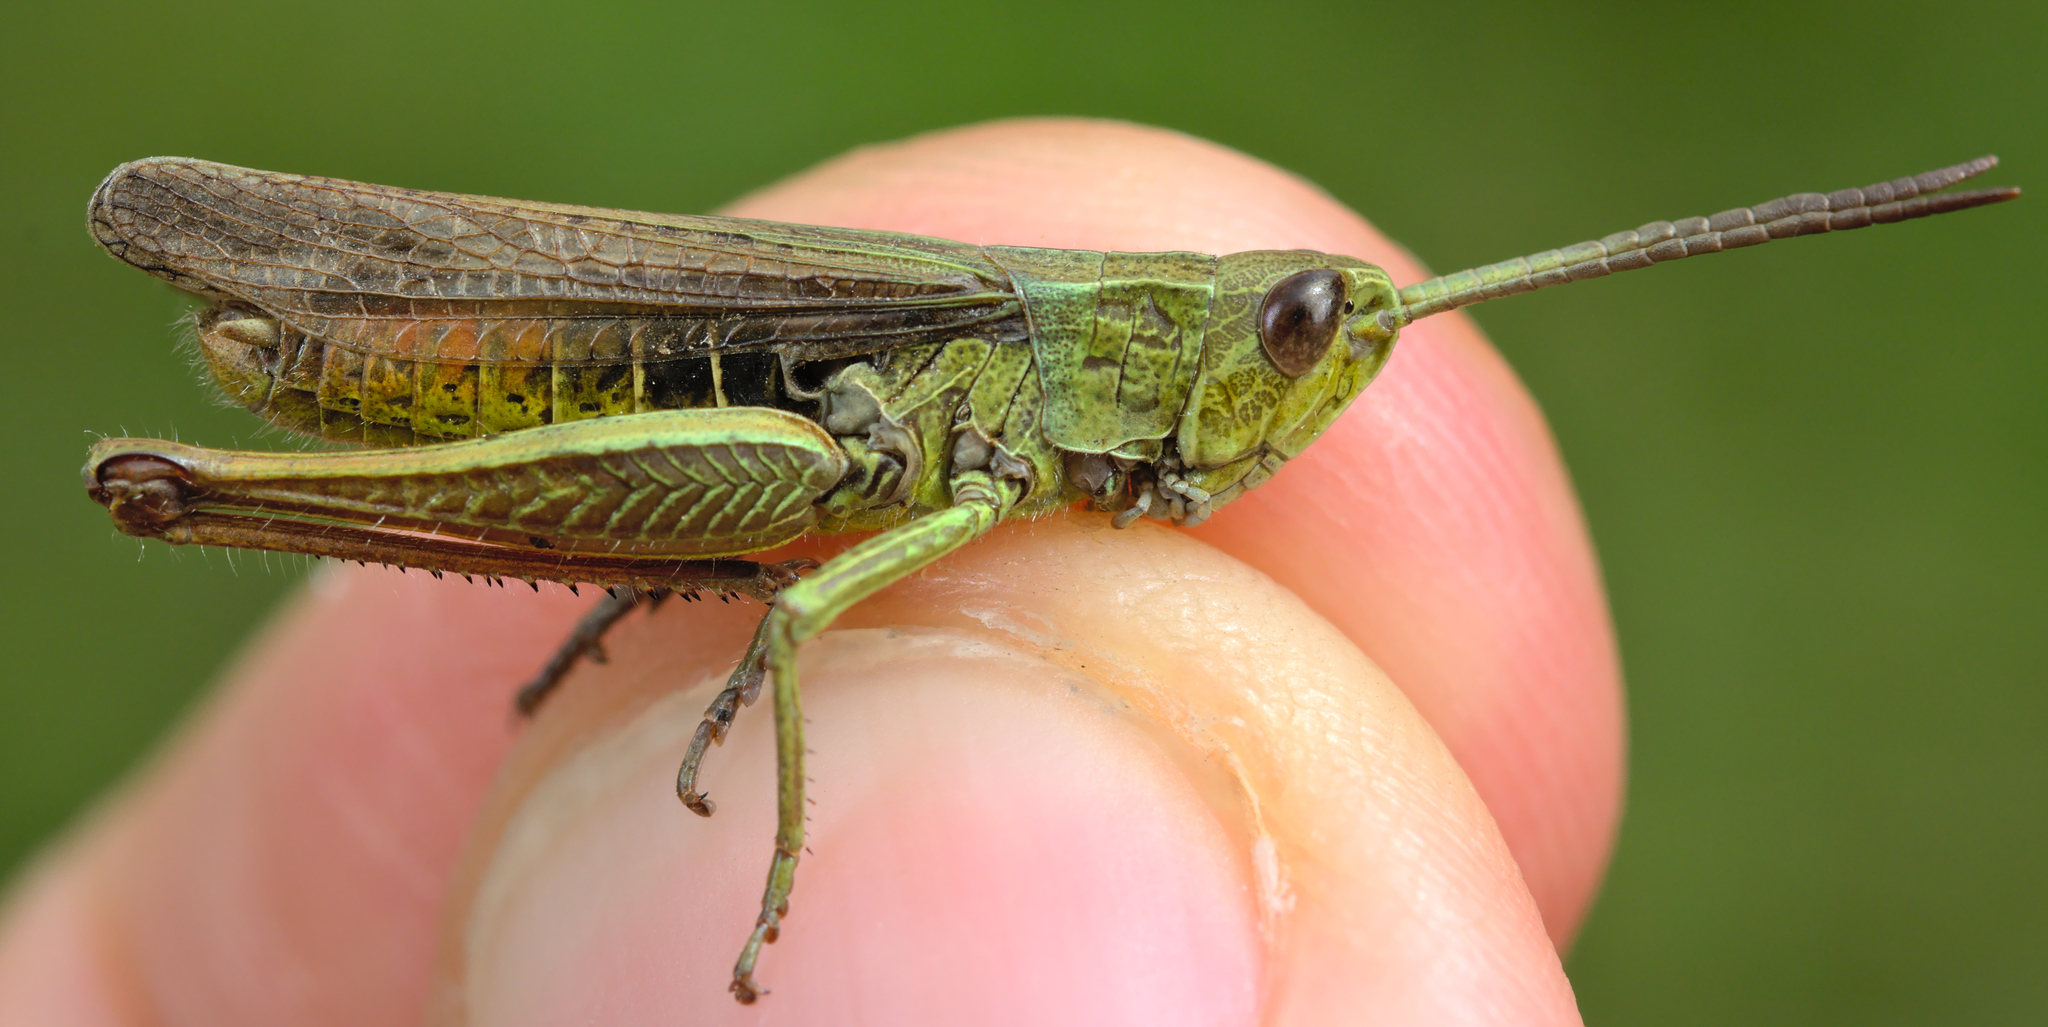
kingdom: Animalia
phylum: Arthropoda
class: Insecta
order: Orthoptera
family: Acrididae
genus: Chorthippus
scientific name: Chorthippus dorsatus
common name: Steppe grasshopper
